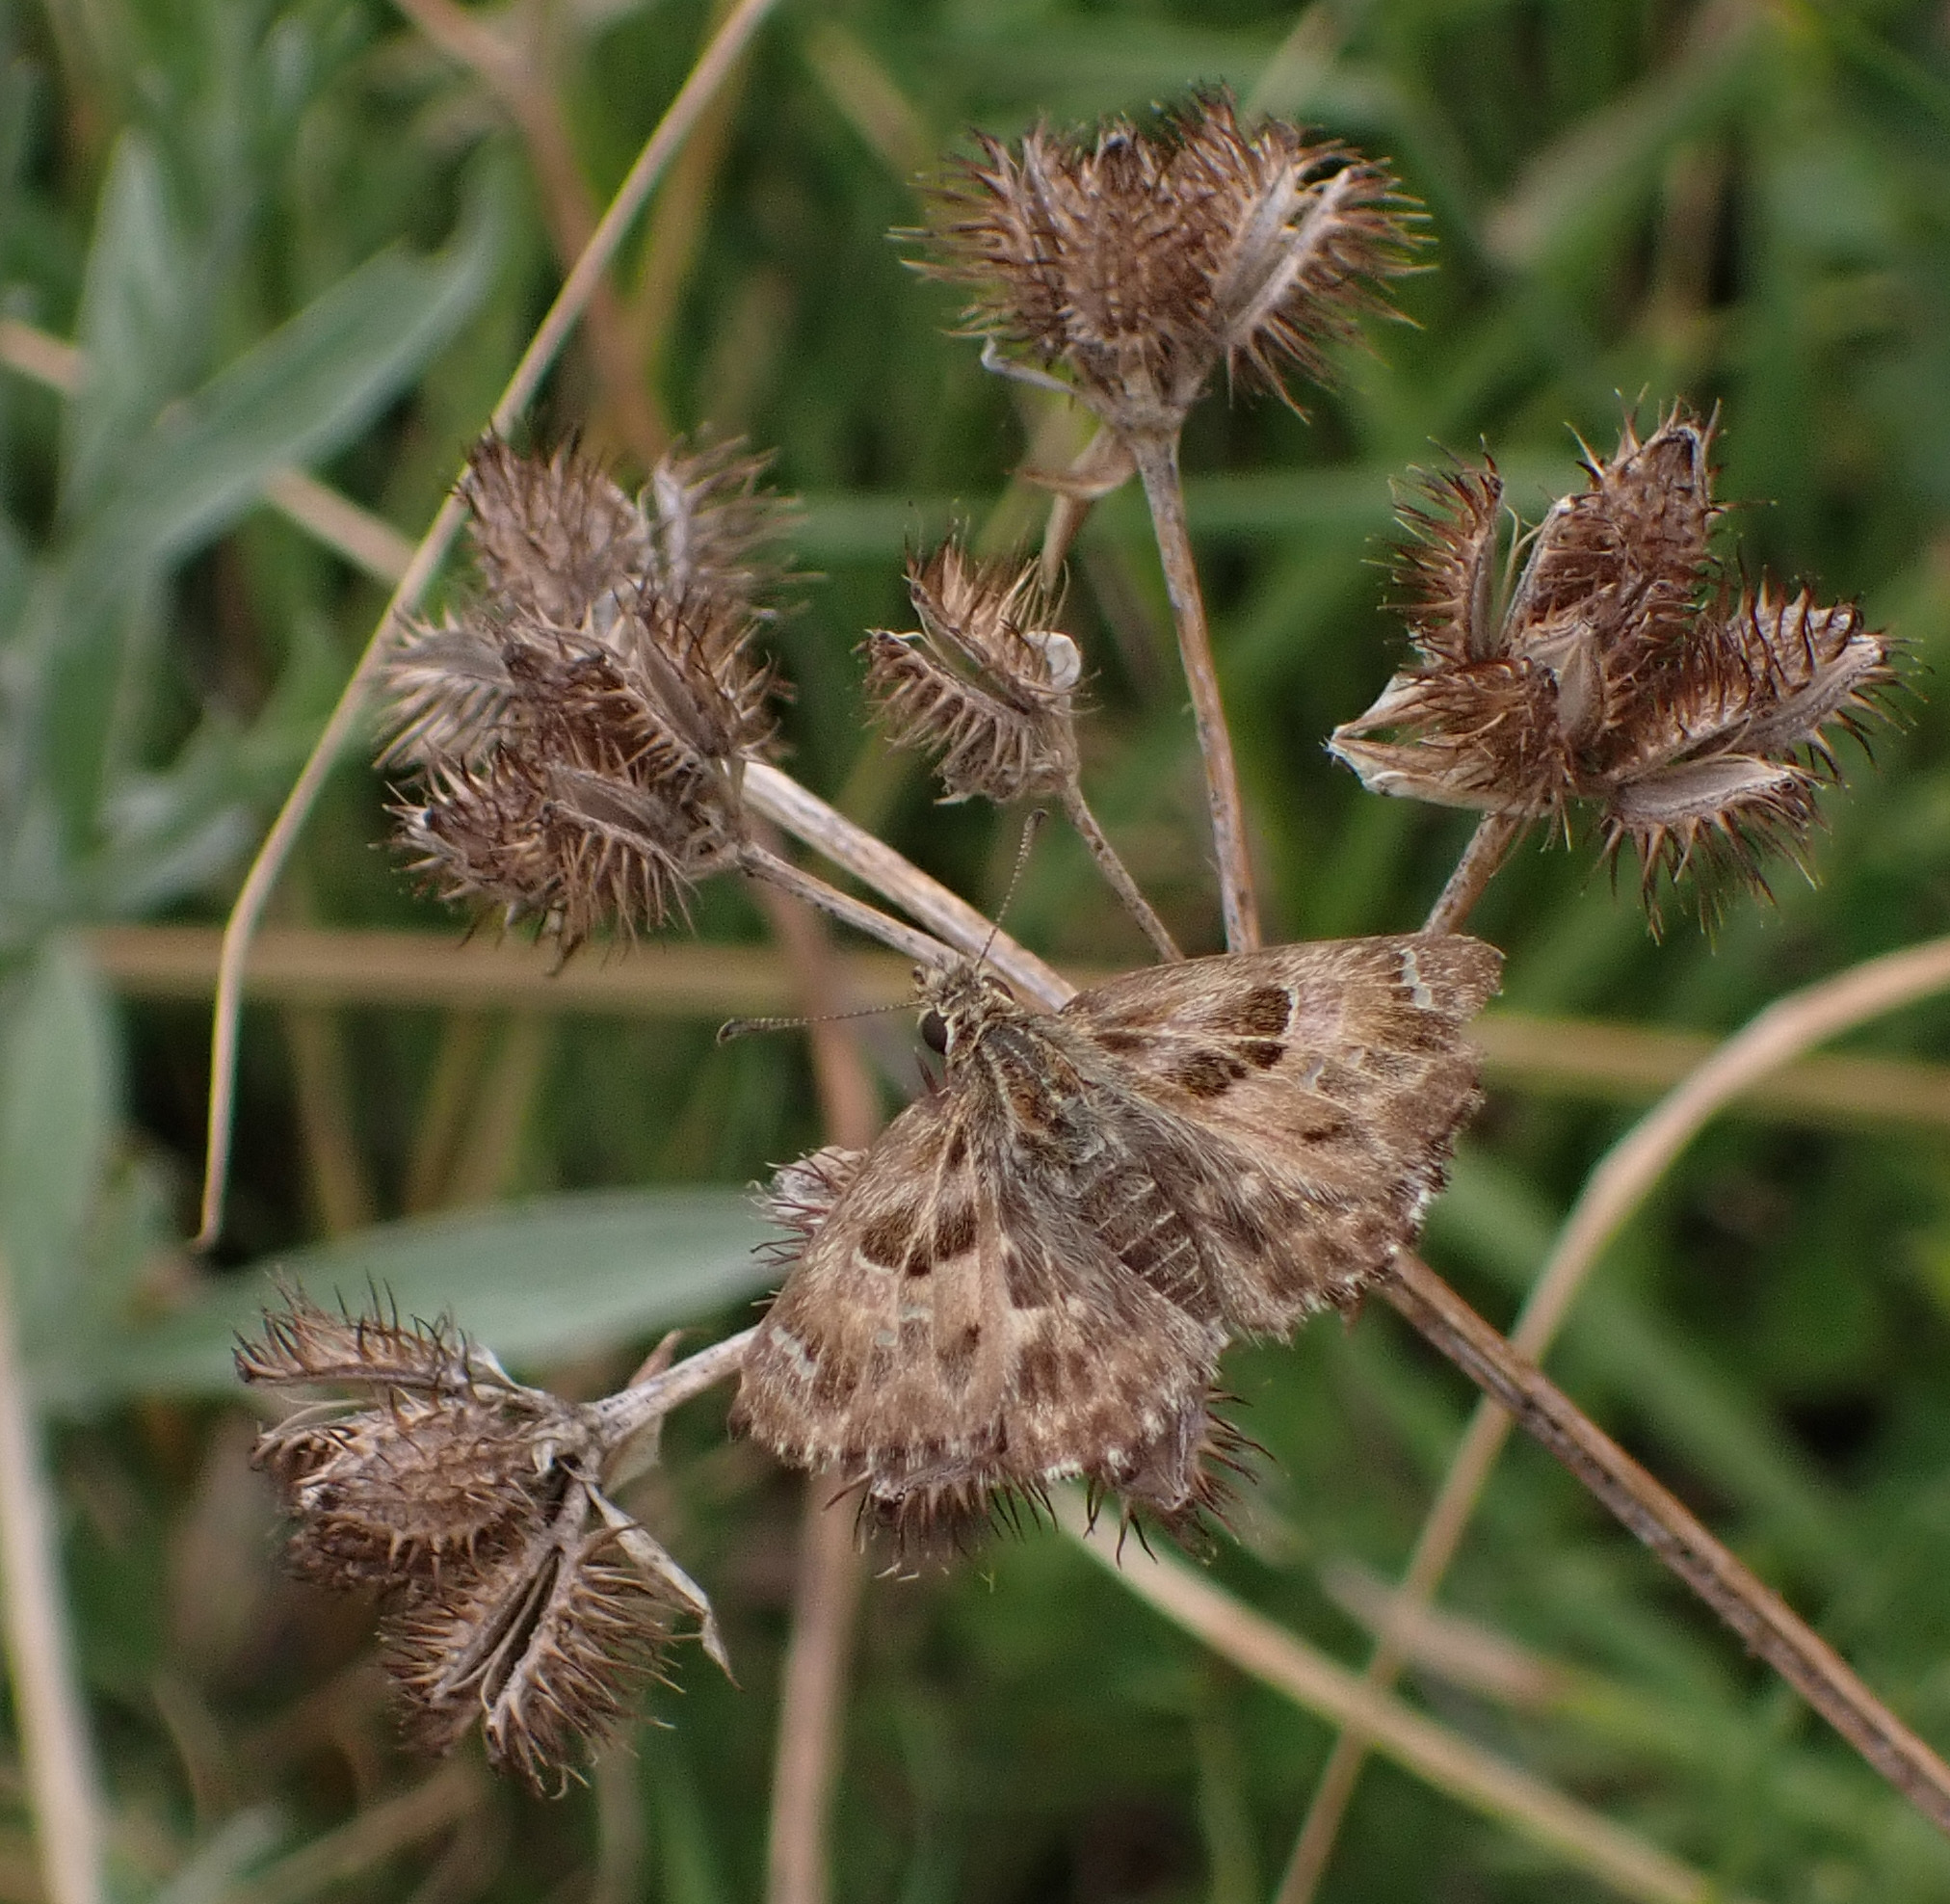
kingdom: Animalia
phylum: Arthropoda
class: Insecta
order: Lepidoptera
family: Hesperiidae
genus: Carcharodus
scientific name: Carcharodus alceae
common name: Mallow skipper
